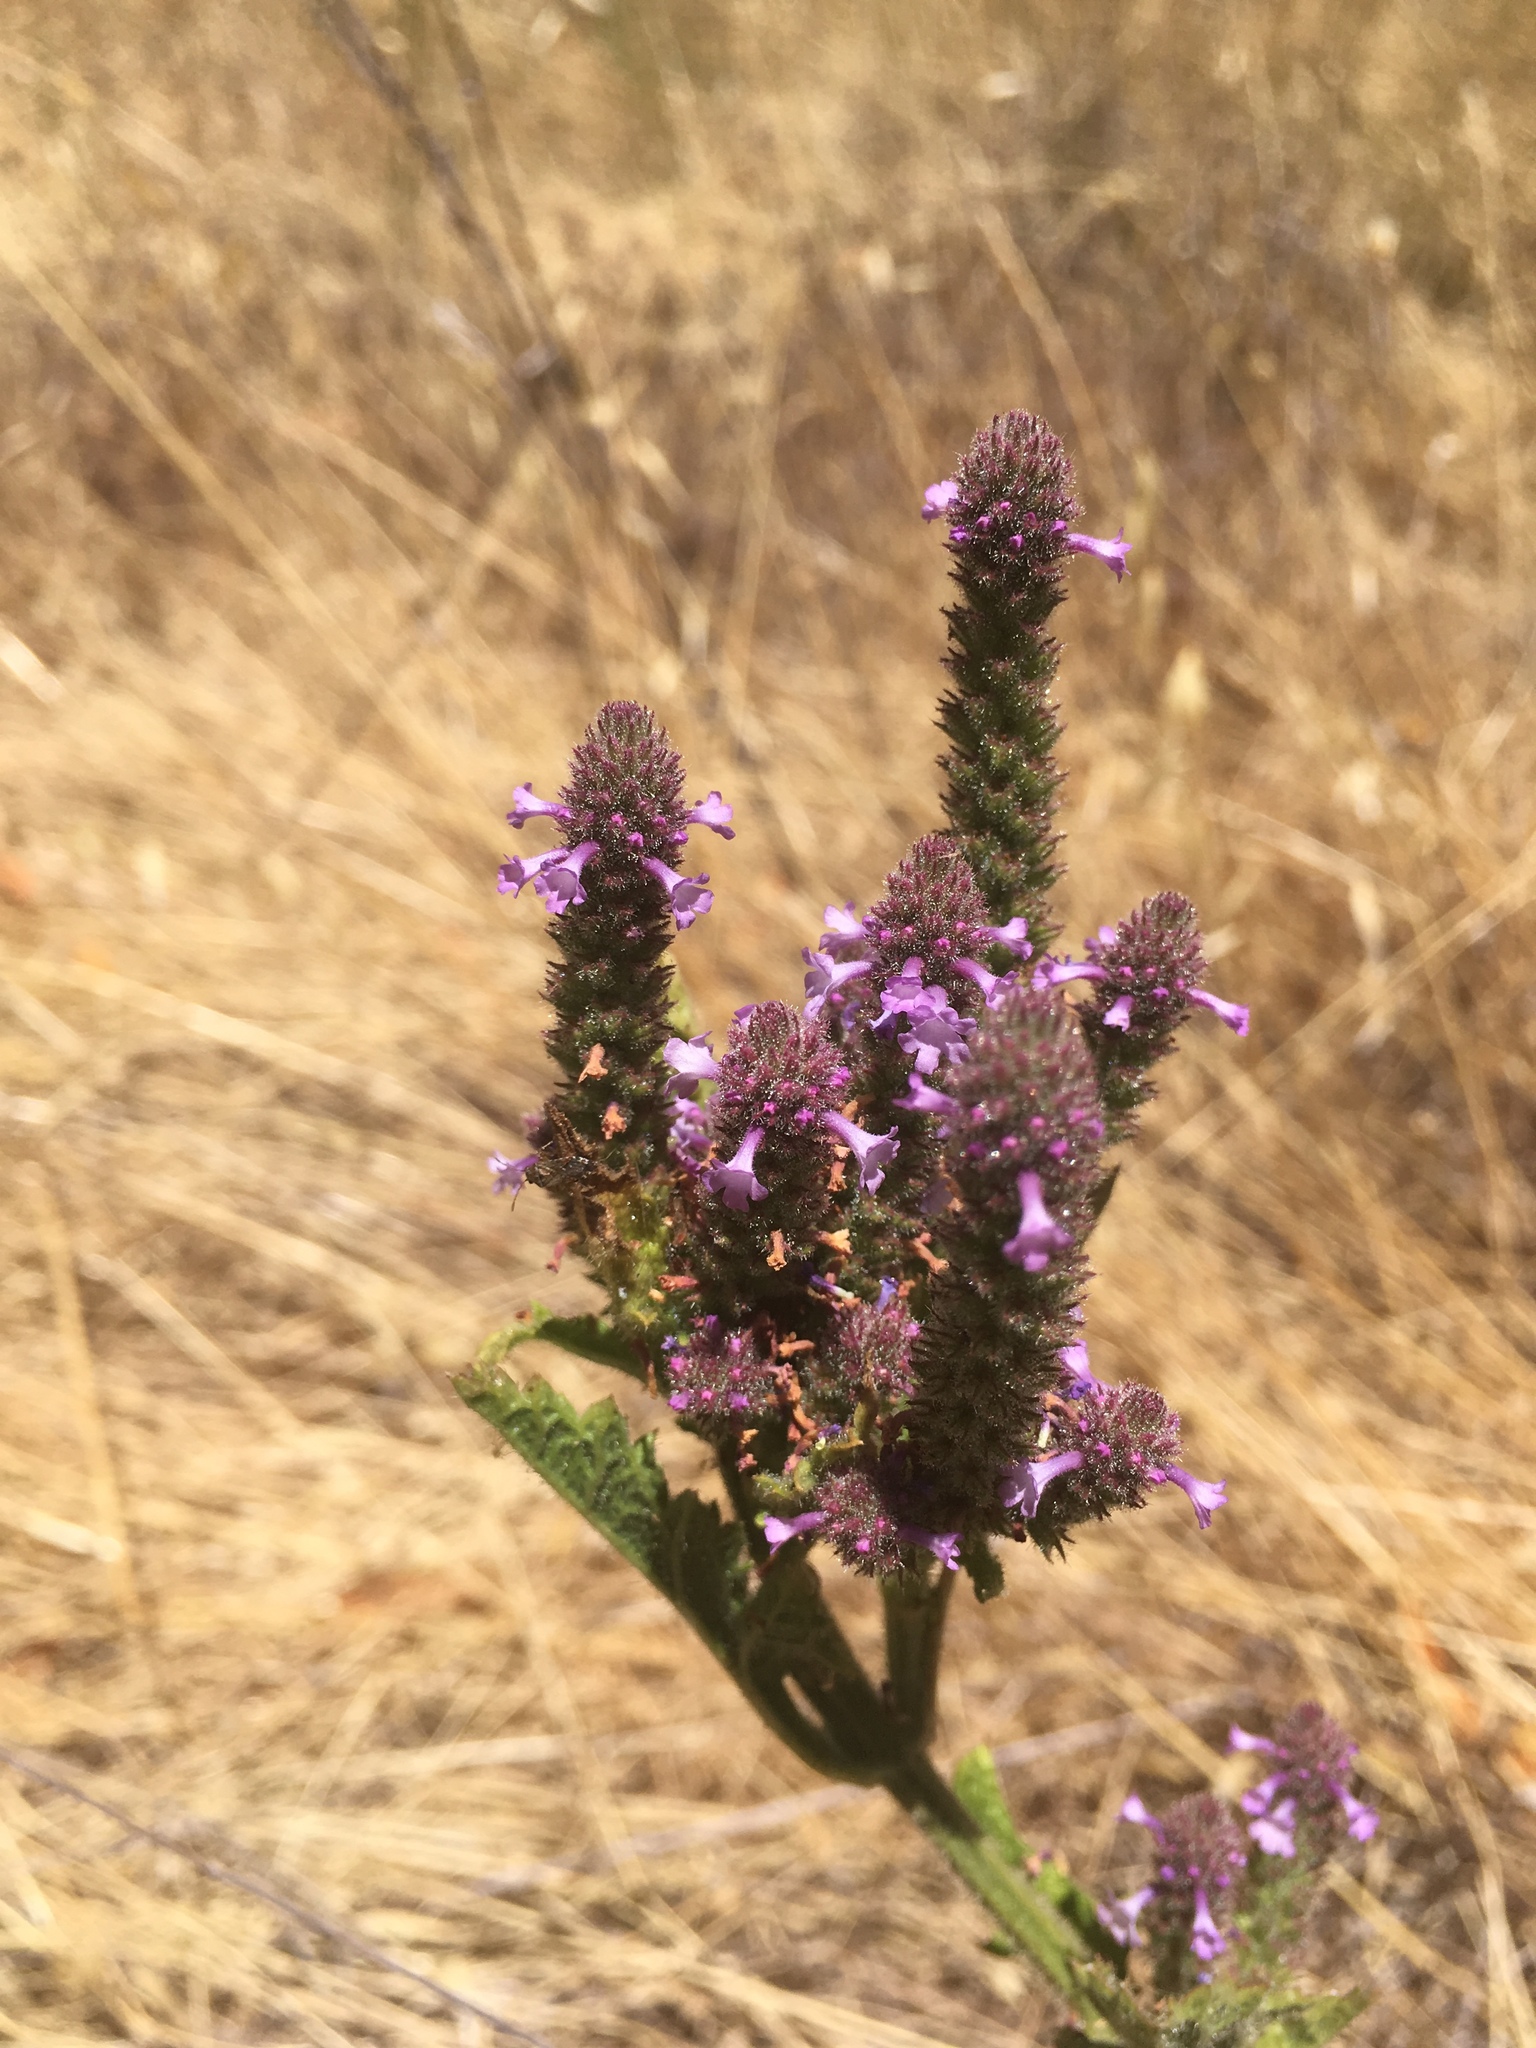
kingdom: Plantae
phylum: Tracheophyta
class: Magnoliopsida
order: Lamiales
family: Verbenaceae
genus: Verbena
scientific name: Verbena lasiostachys
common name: Vervain
